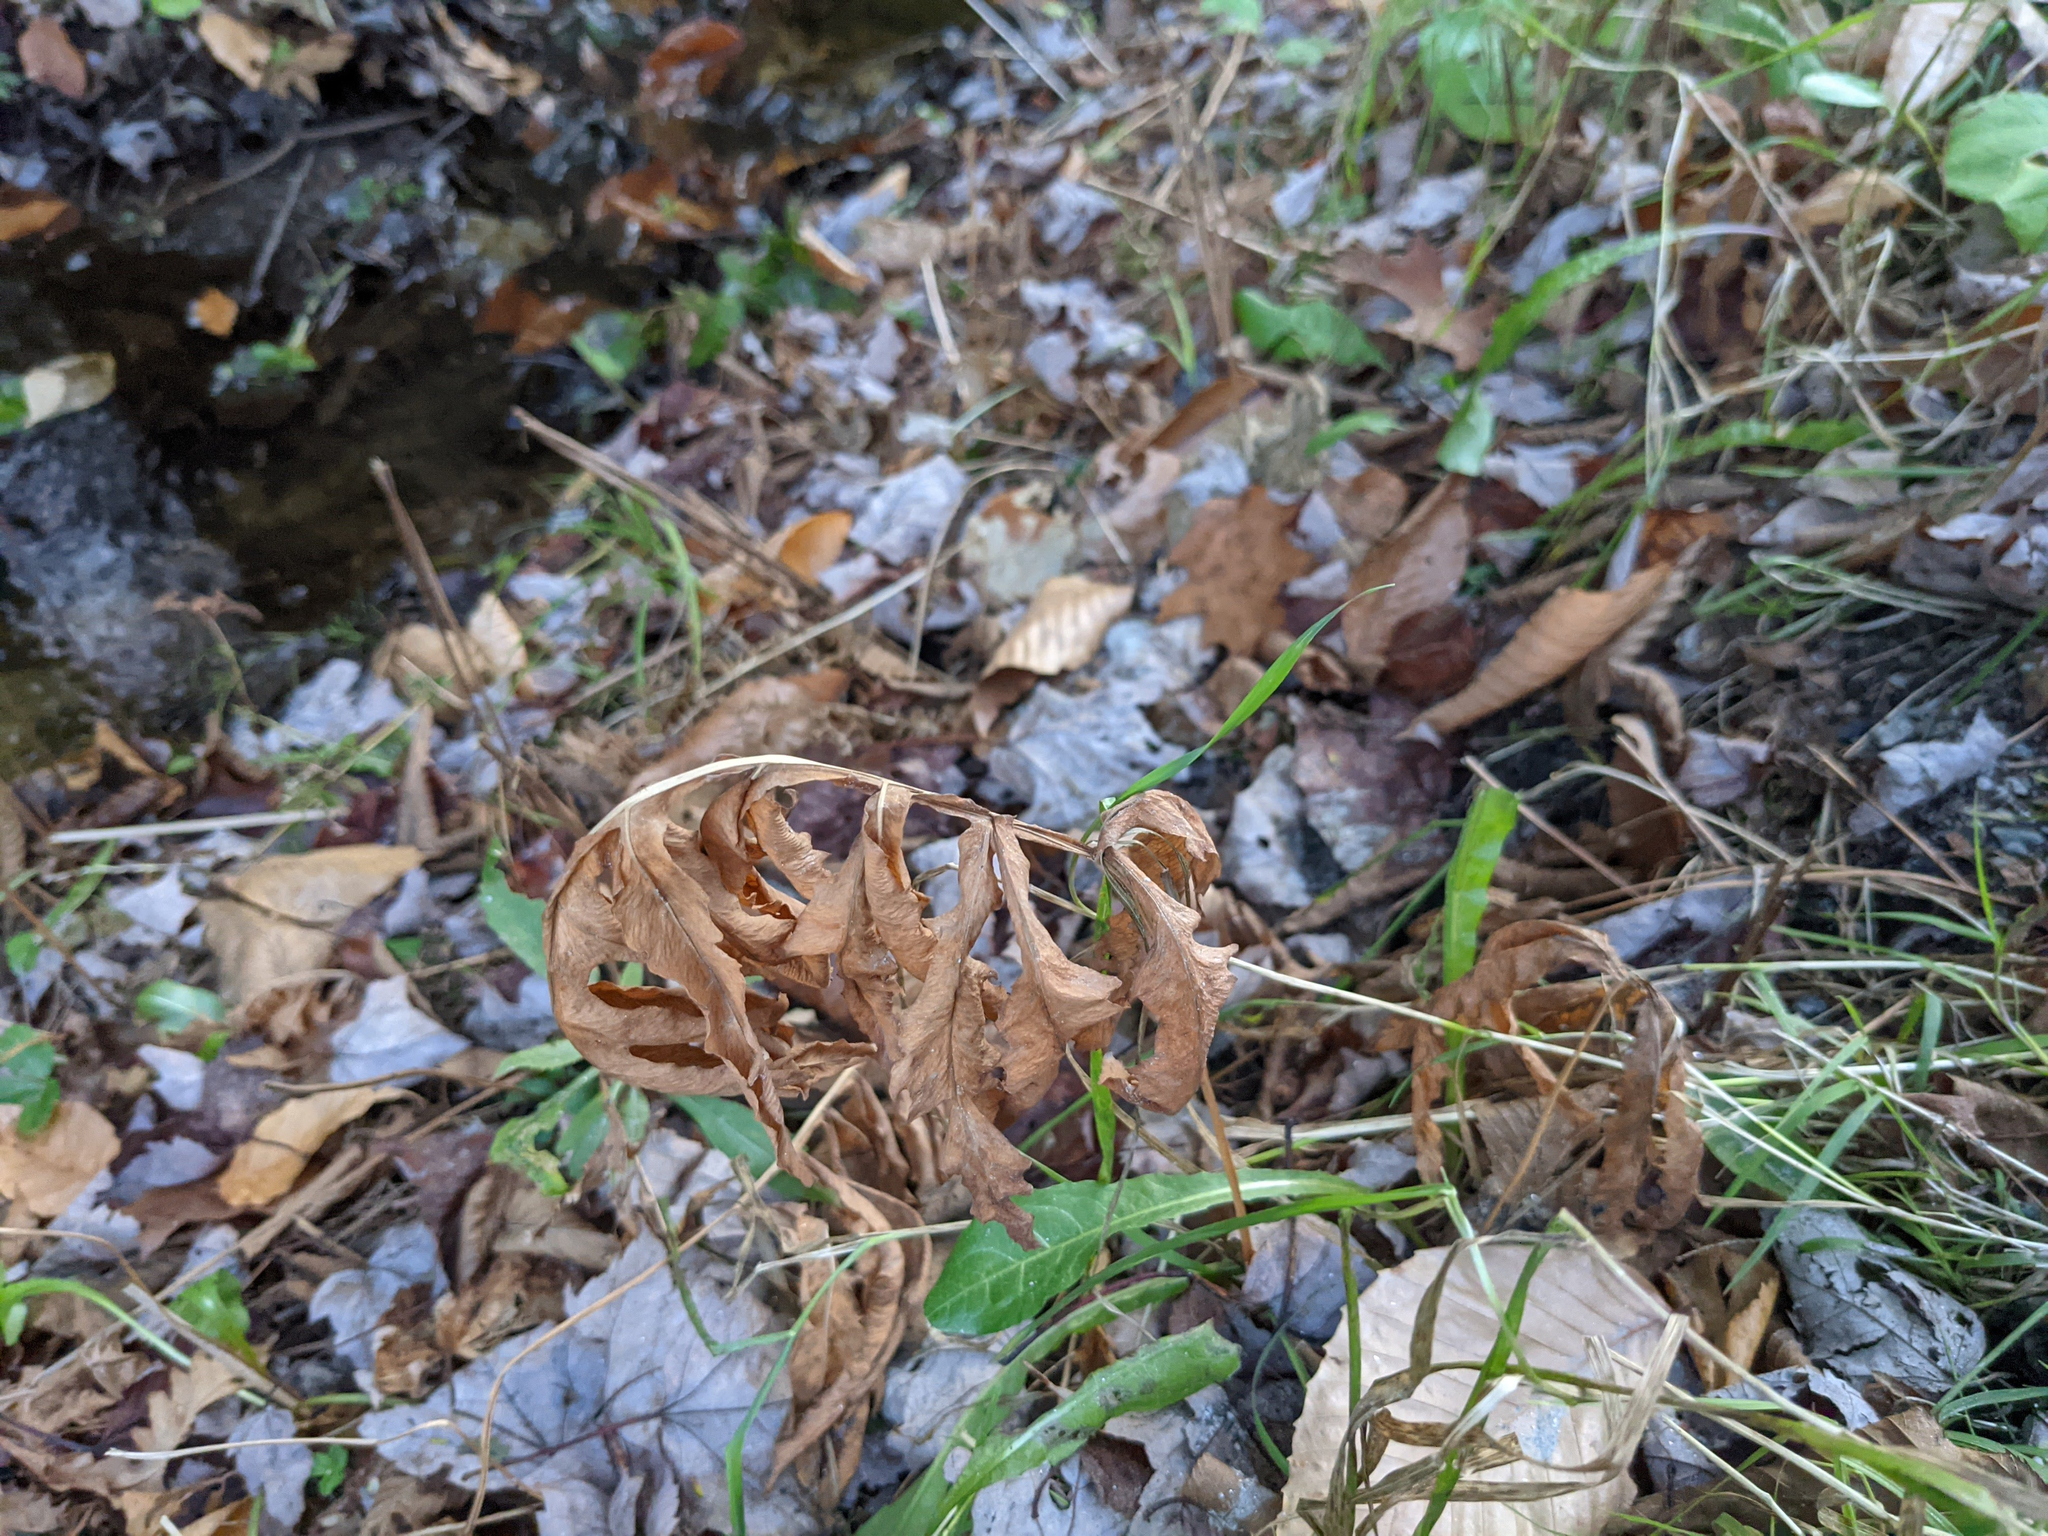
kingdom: Plantae
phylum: Tracheophyta
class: Polypodiopsida
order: Polypodiales
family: Onocleaceae
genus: Onoclea
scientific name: Onoclea sensibilis
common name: Sensitive fern
